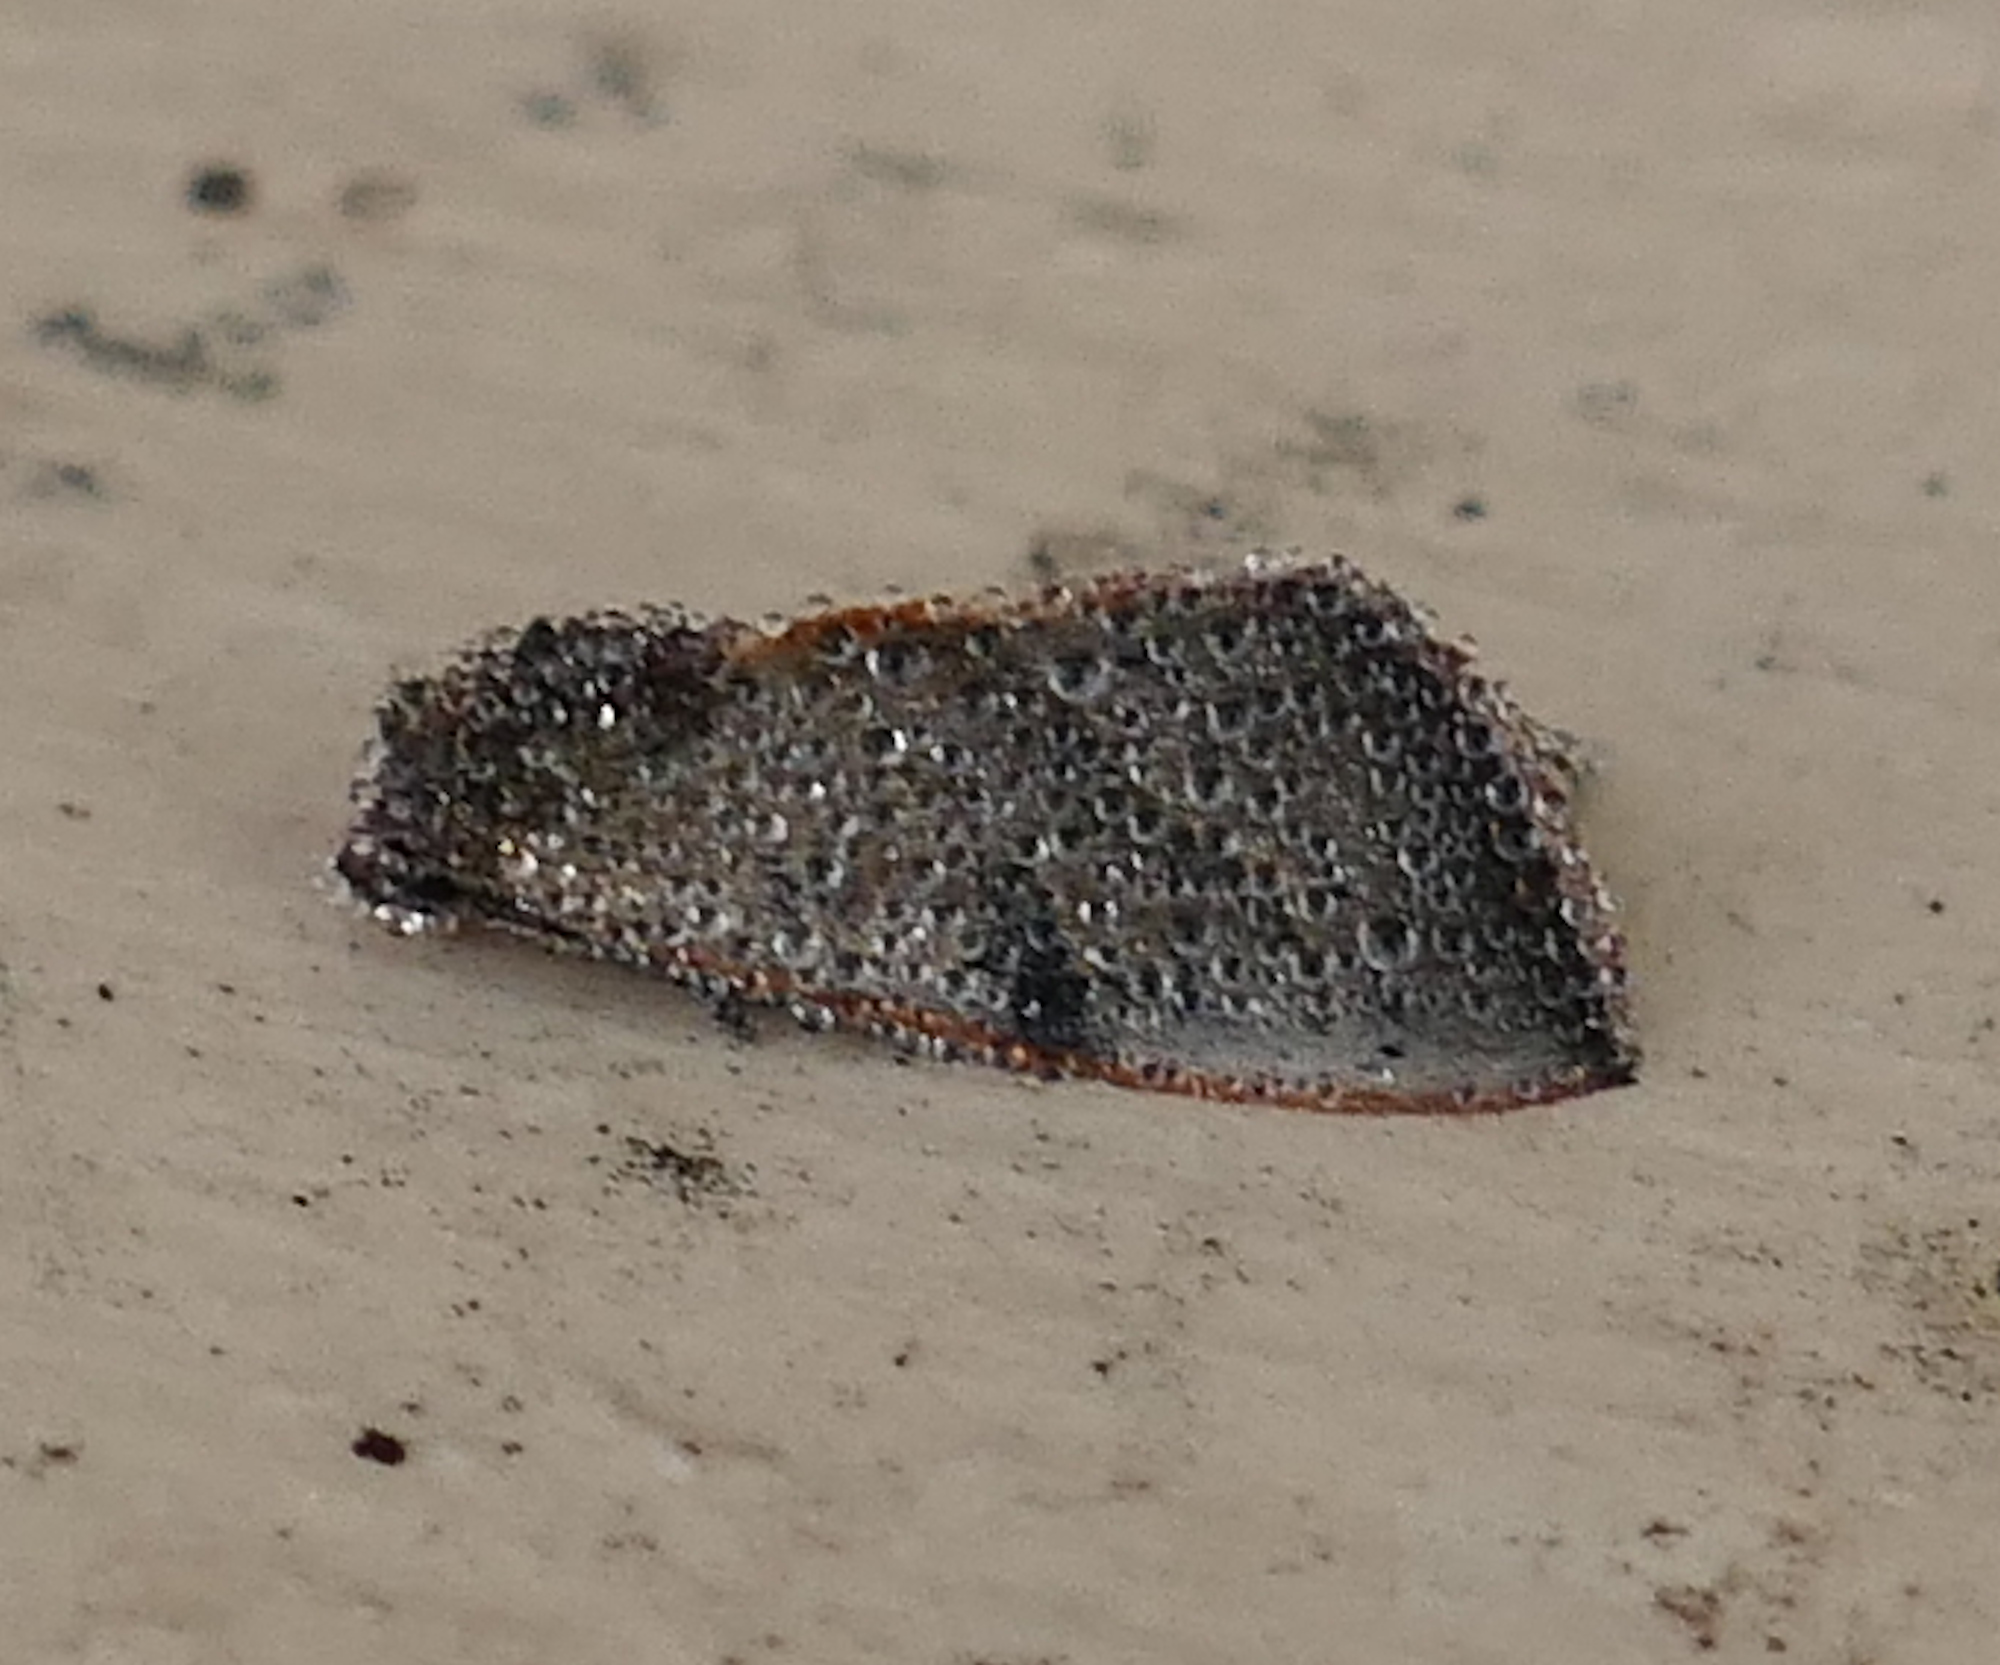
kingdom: Animalia
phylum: Arthropoda
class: Insecta
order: Lepidoptera
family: Noctuidae
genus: Galgula
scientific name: Galgula partita
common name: Wedgeling
